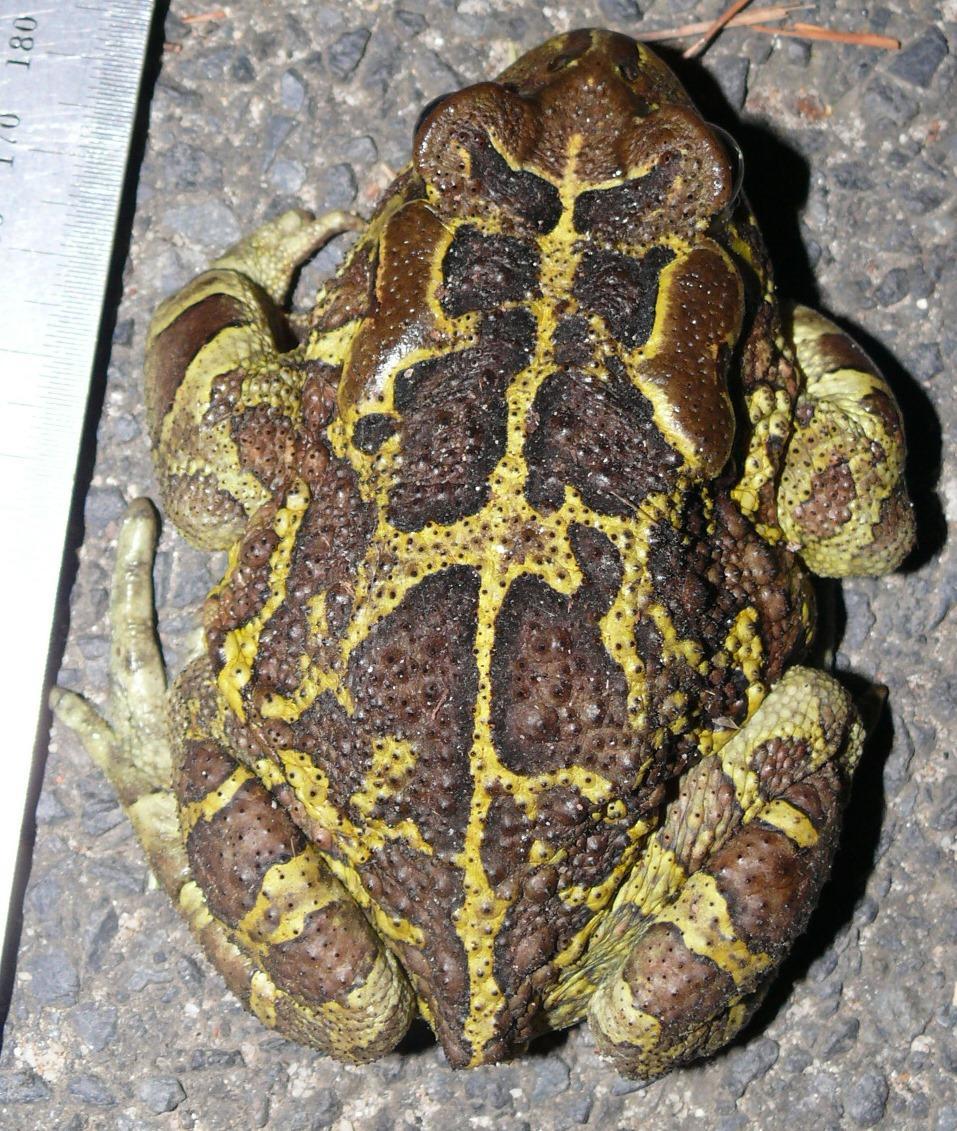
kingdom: Animalia
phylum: Chordata
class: Amphibia
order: Anura
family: Bufonidae
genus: Sclerophrys
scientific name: Sclerophrys pantherina
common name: Panther toad
